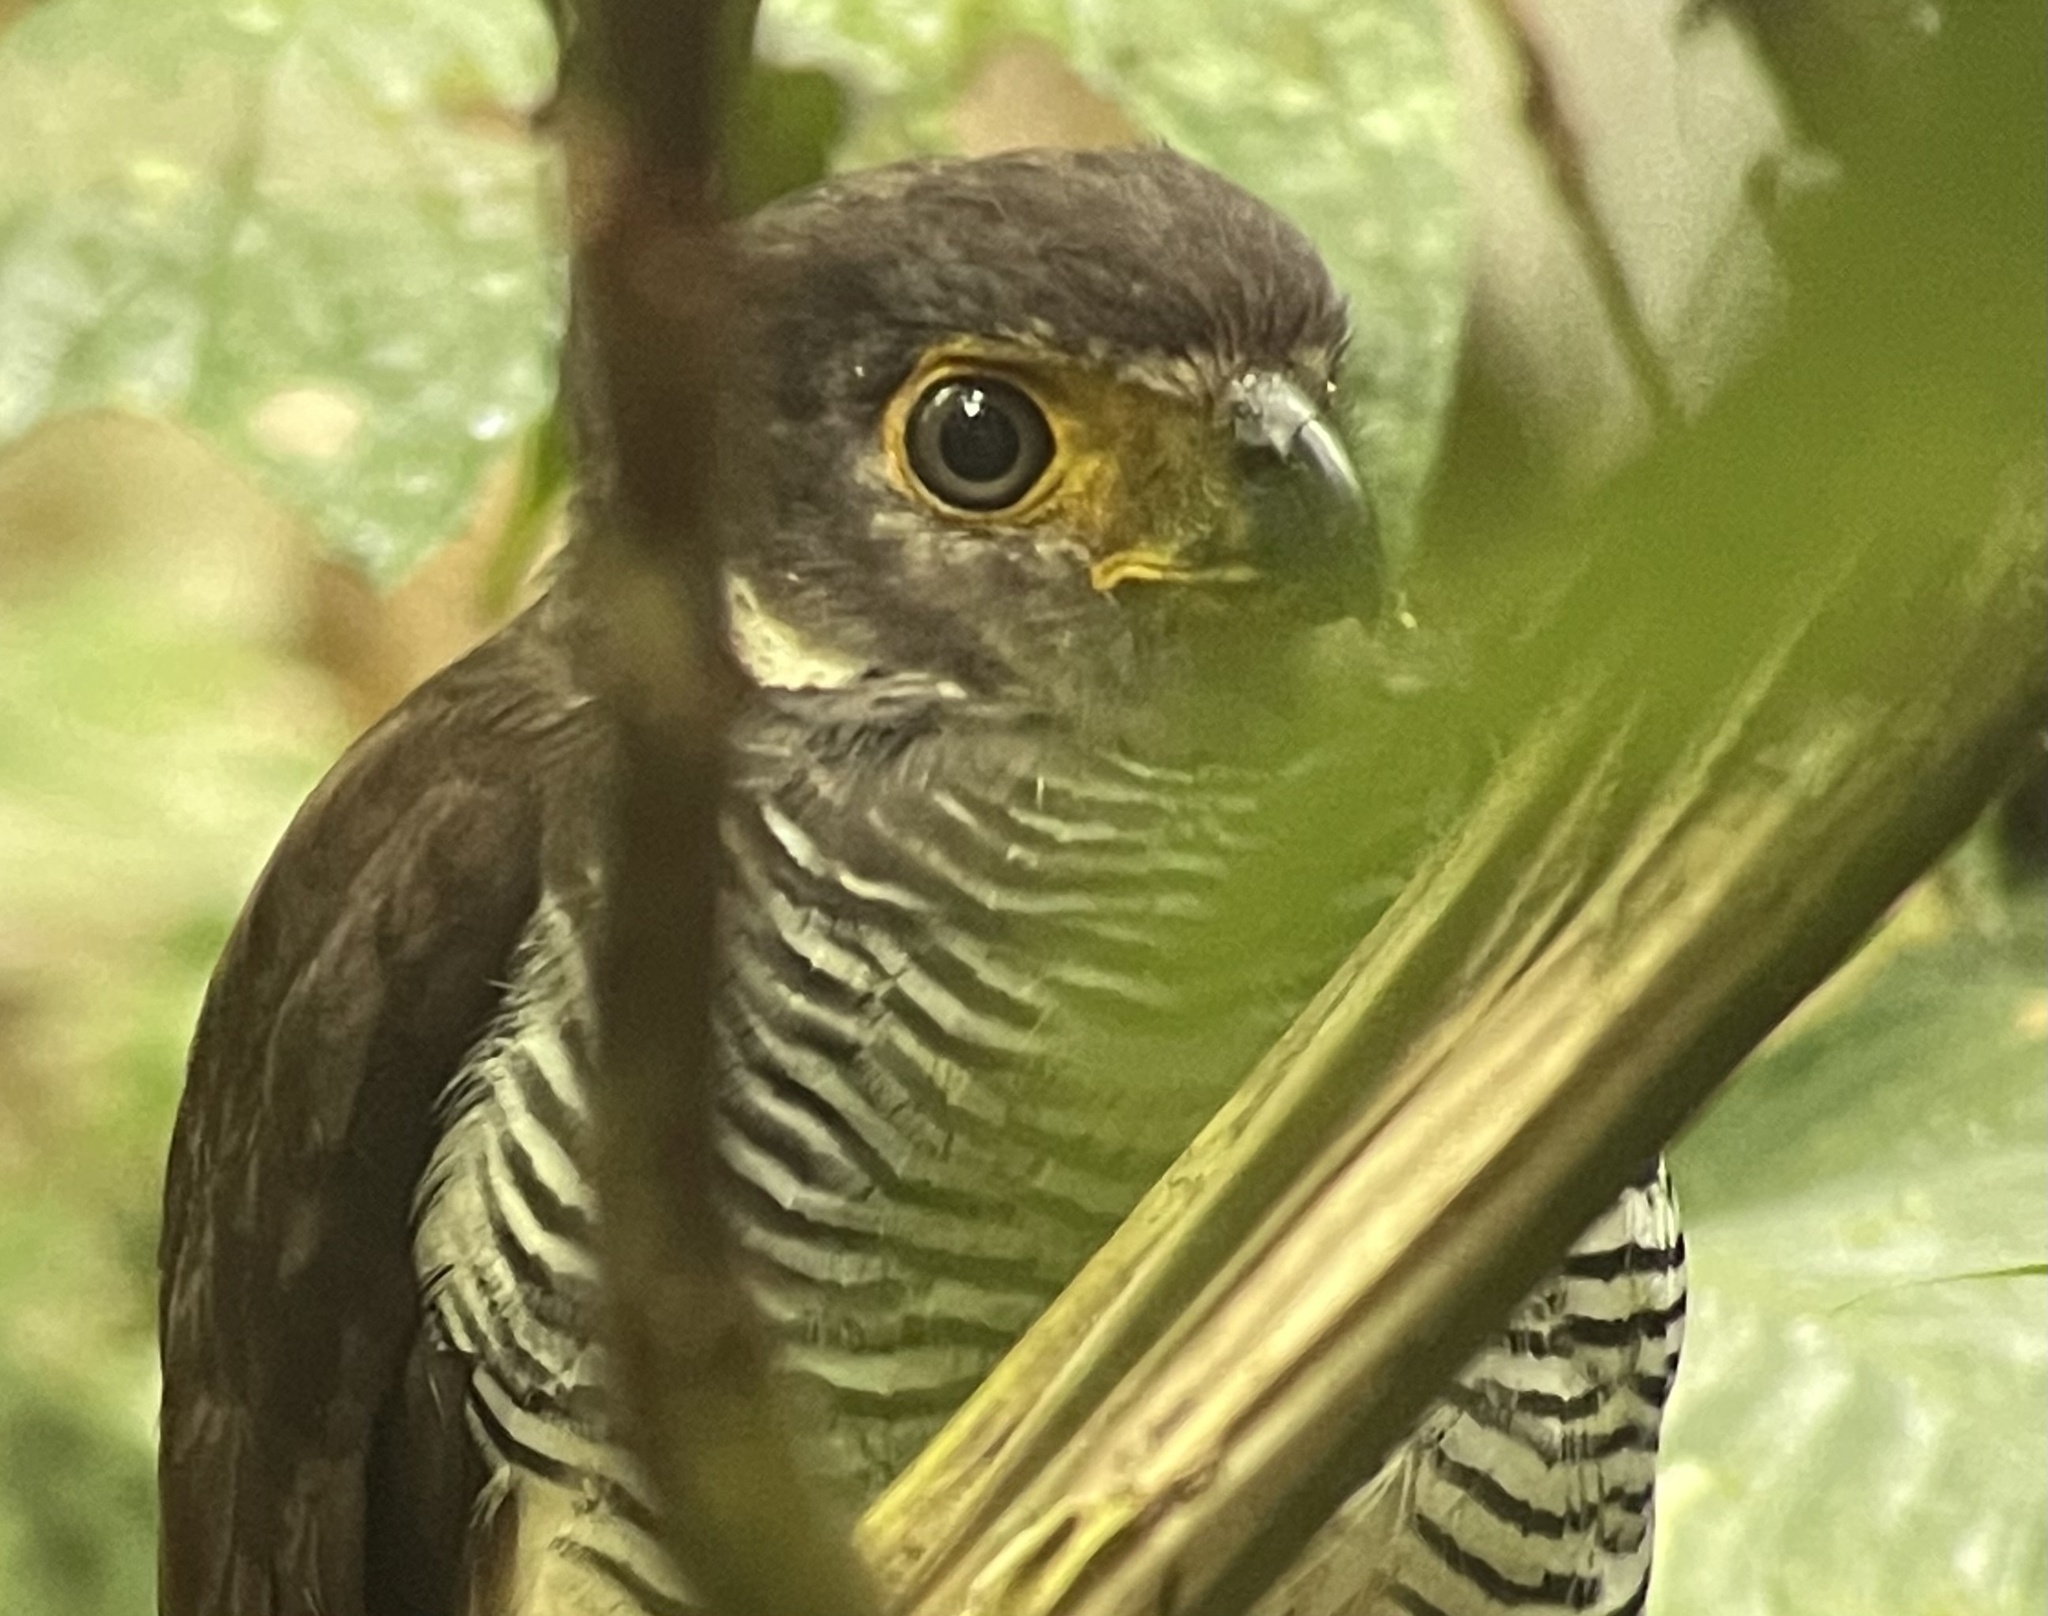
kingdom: Animalia
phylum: Chordata
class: Aves
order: Falconiformes
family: Falconidae
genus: Micrastur
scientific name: Micrastur ruficollis
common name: Barred forest-falcon
